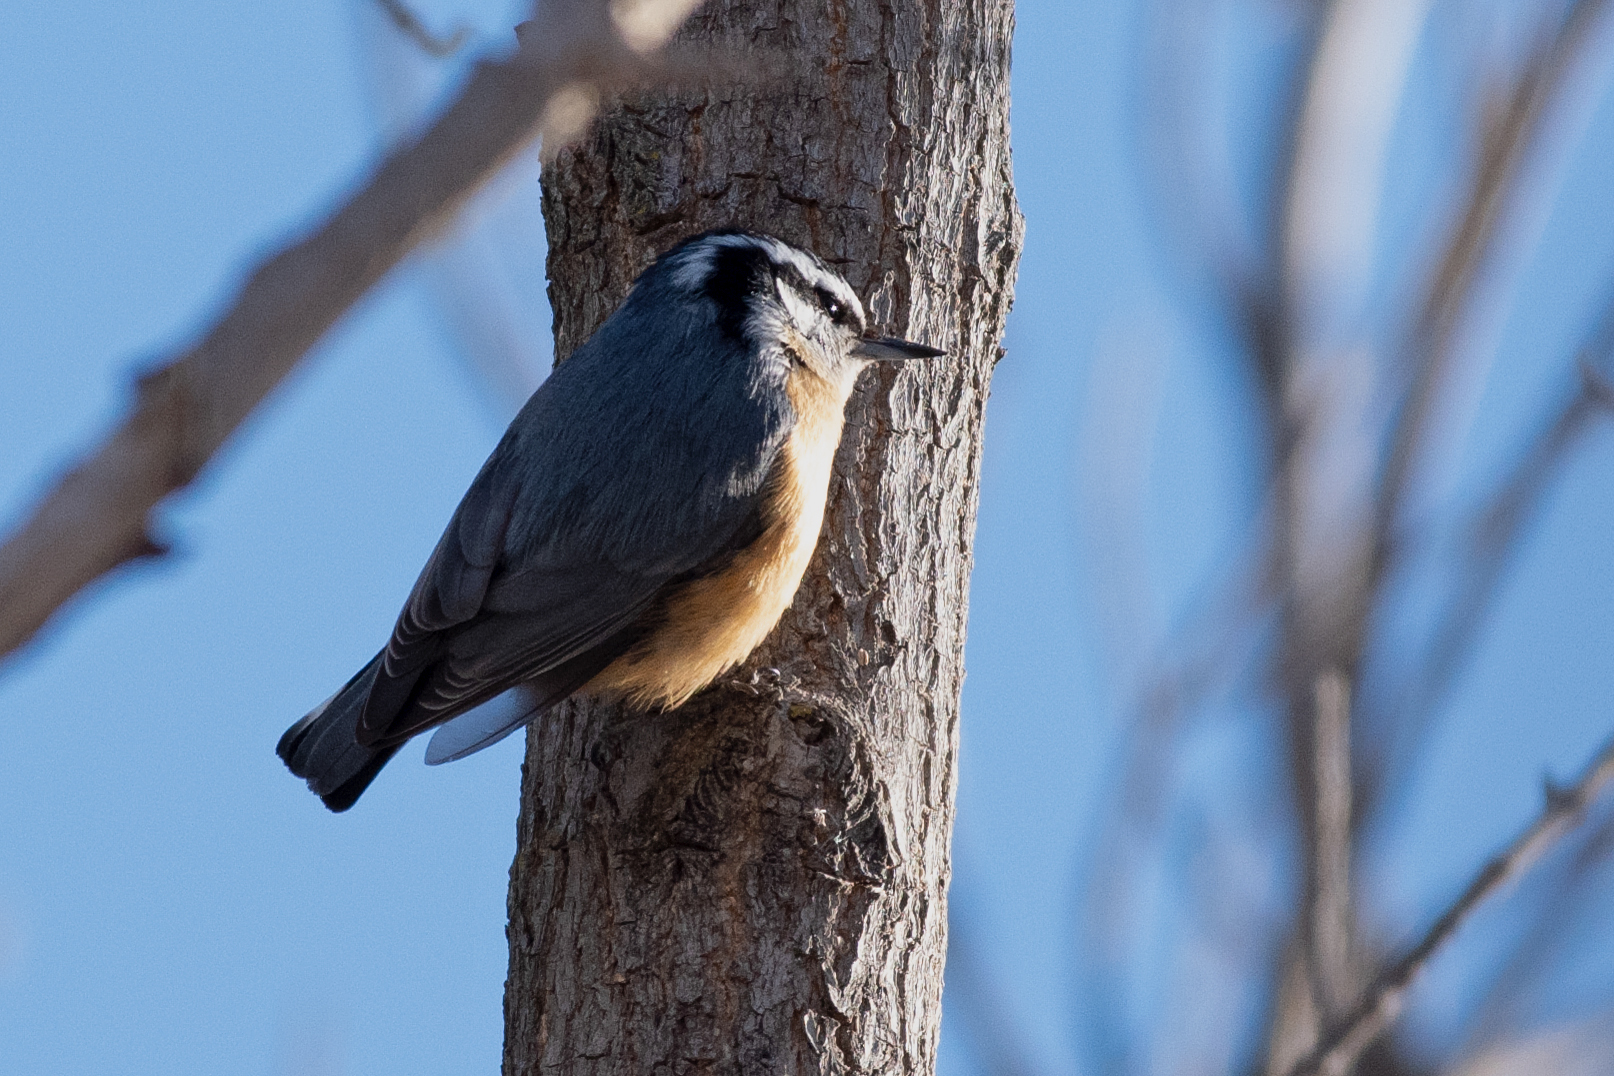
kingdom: Animalia
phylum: Chordata
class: Aves
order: Passeriformes
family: Sittidae
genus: Sitta
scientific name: Sitta canadensis
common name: Red-breasted nuthatch
